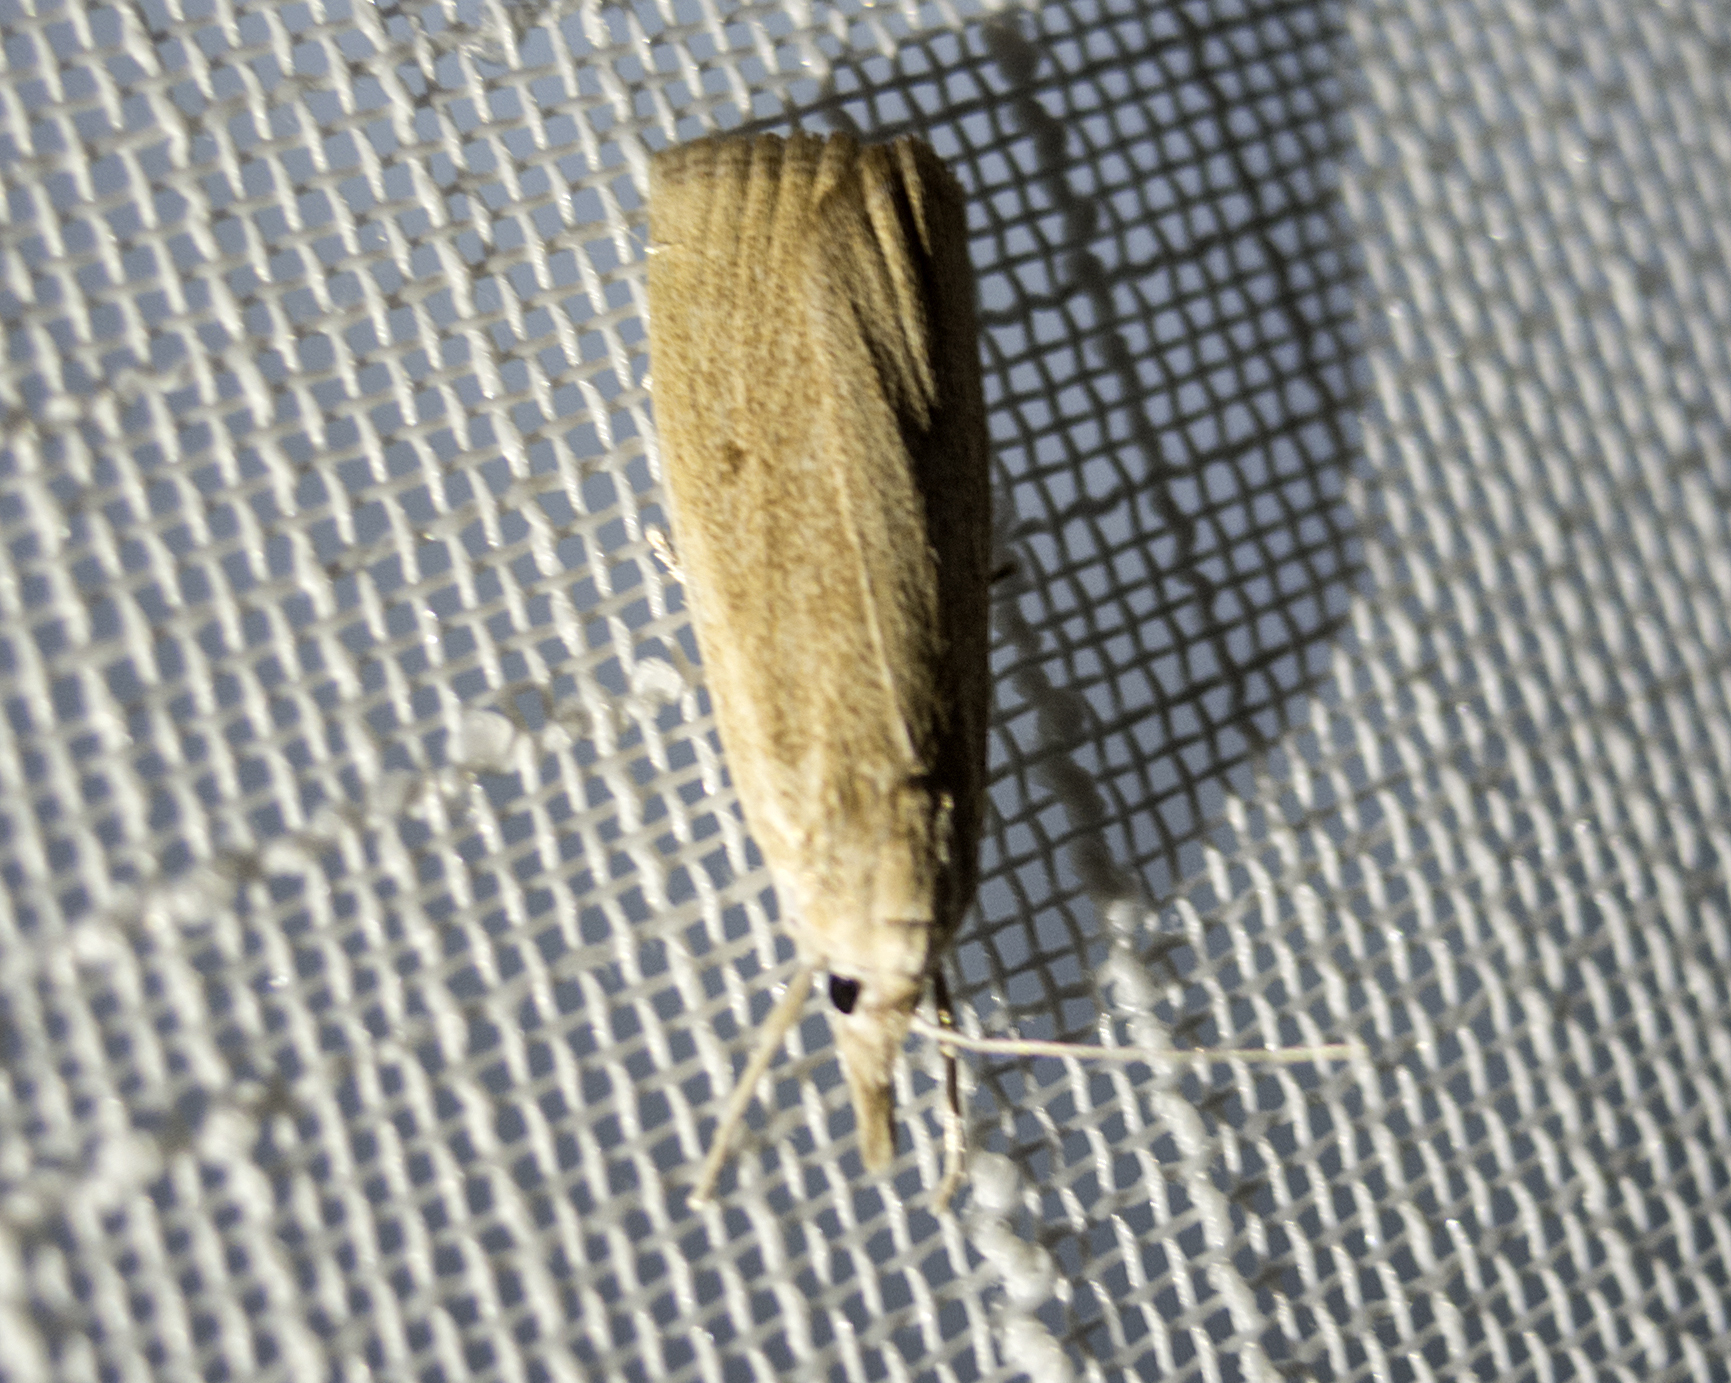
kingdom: Animalia
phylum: Arthropoda
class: Insecta
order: Lepidoptera
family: Crambidae
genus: Calamotropha
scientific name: Calamotropha paludella
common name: Bulrush veneer
